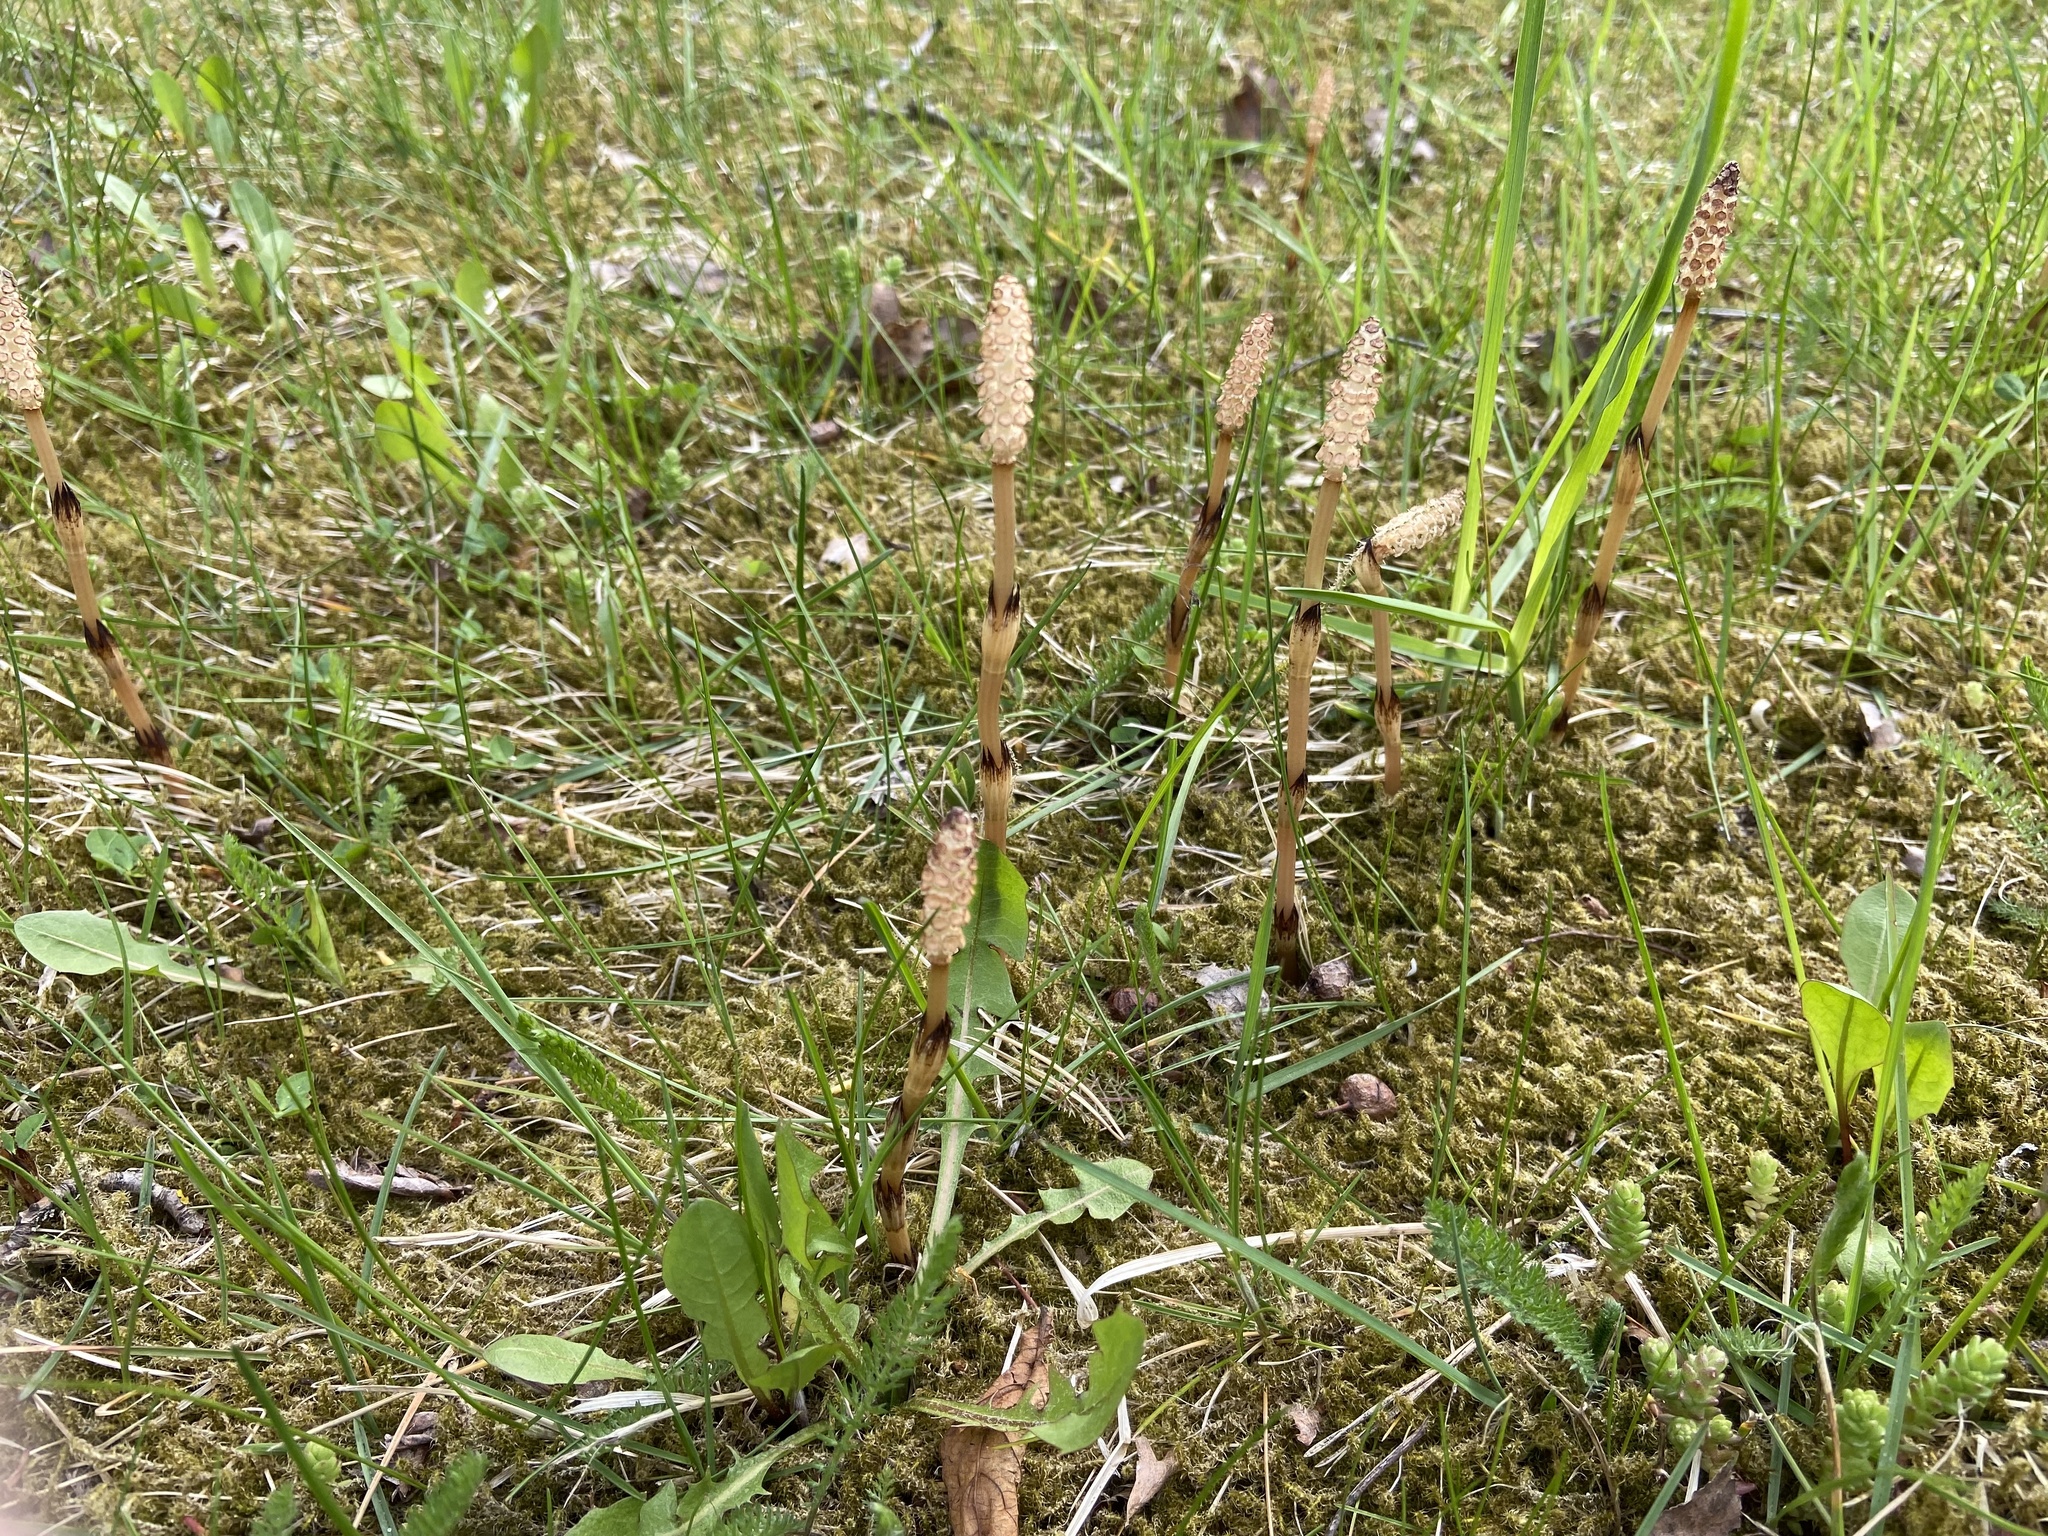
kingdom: Plantae
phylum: Tracheophyta
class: Polypodiopsida
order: Equisetales
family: Equisetaceae
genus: Equisetum
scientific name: Equisetum arvense
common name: Field horsetail
